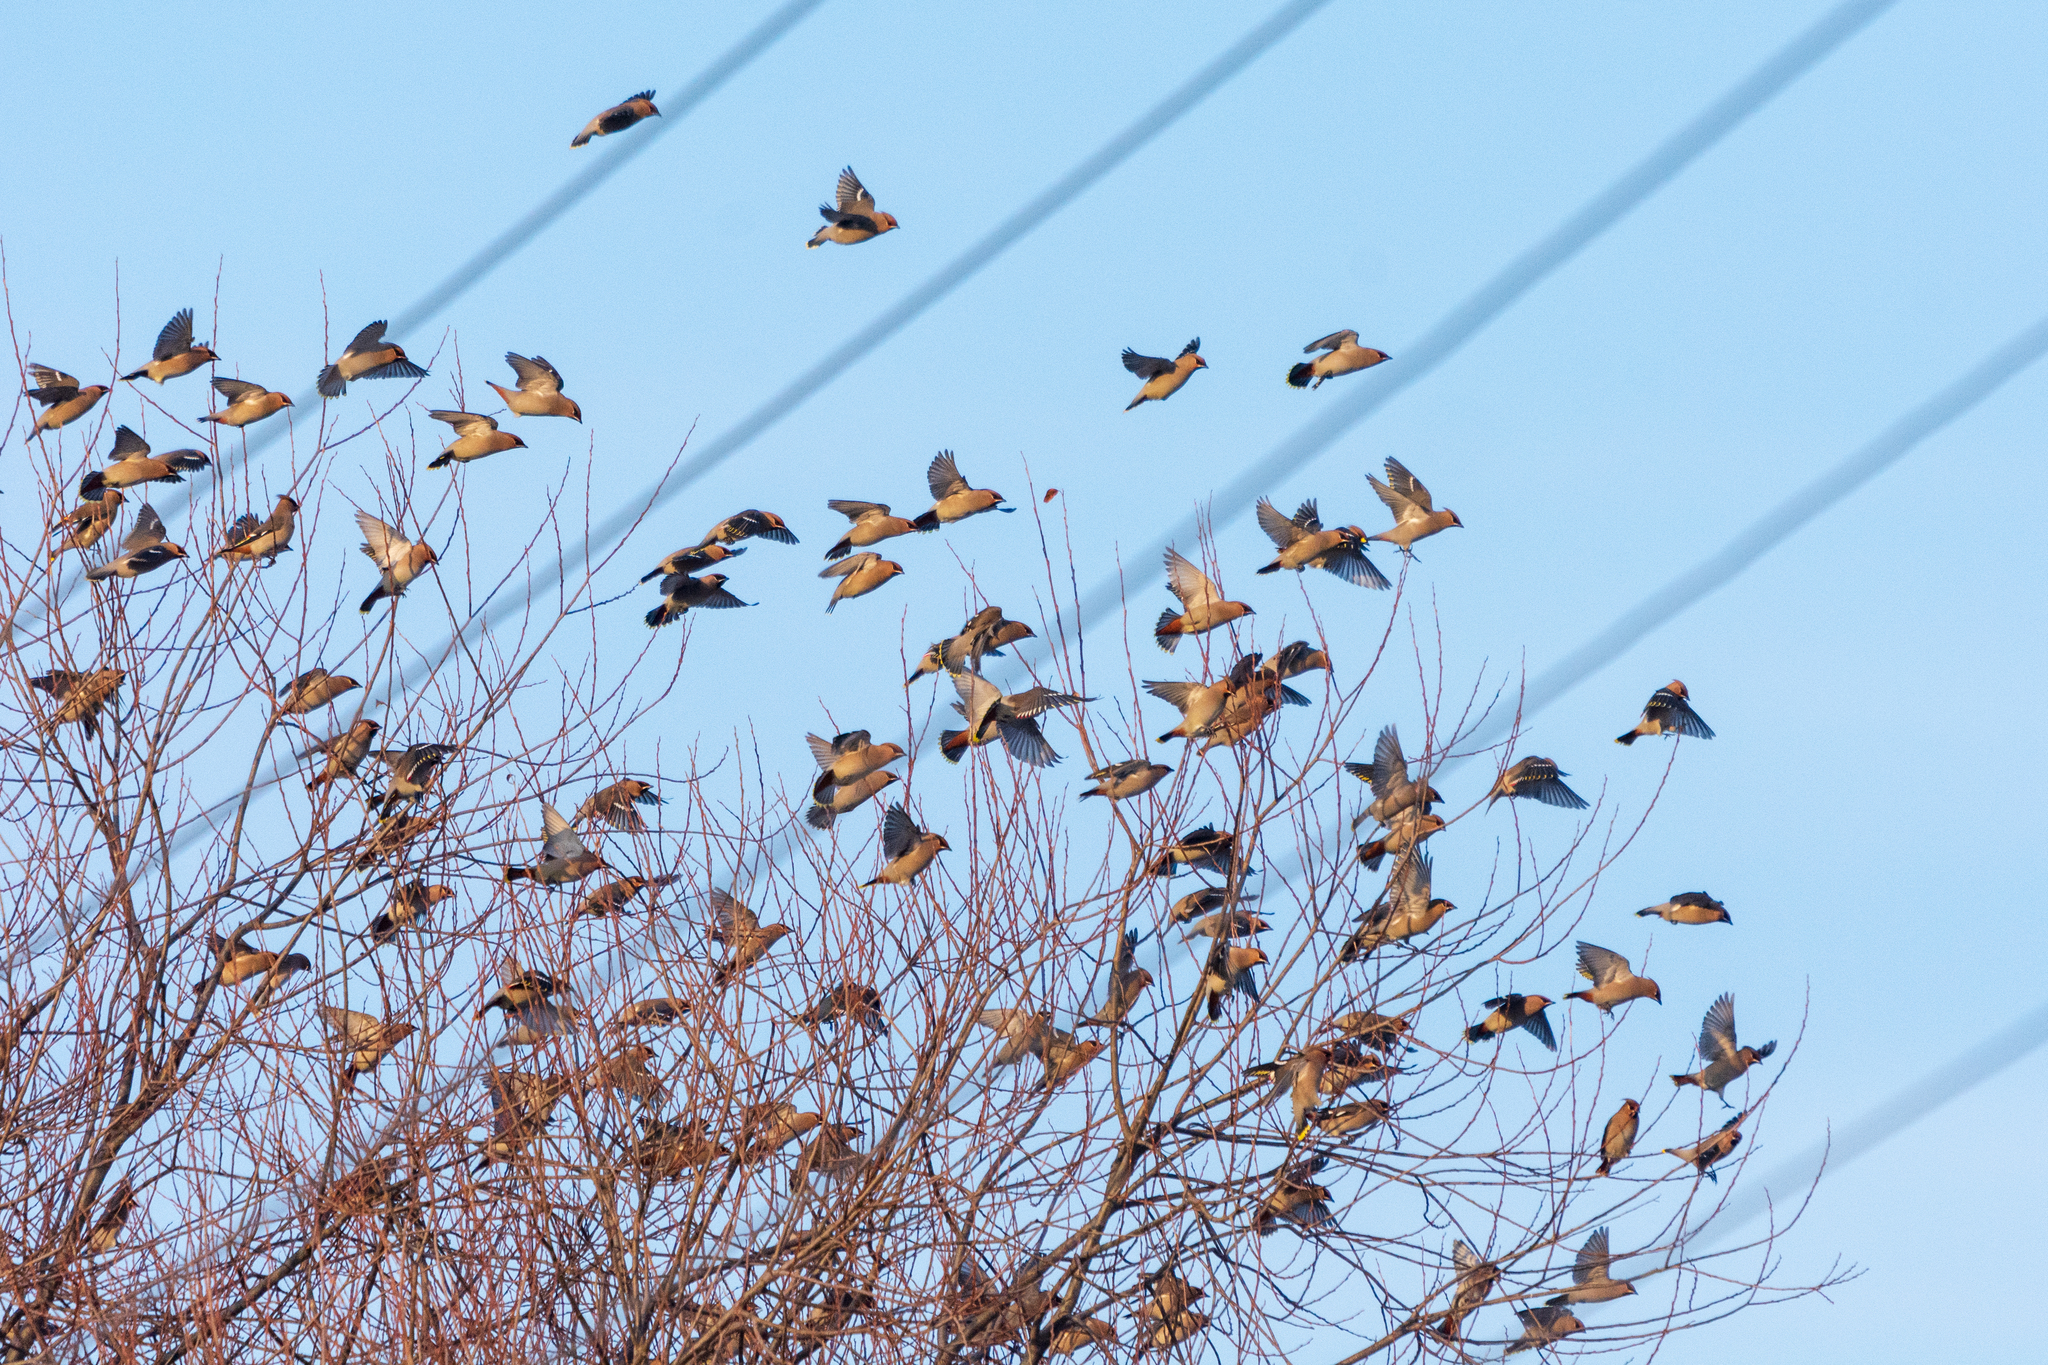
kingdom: Animalia
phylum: Chordata
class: Aves
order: Passeriformes
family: Bombycillidae
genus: Bombycilla
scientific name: Bombycilla garrulus
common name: Bohemian waxwing
